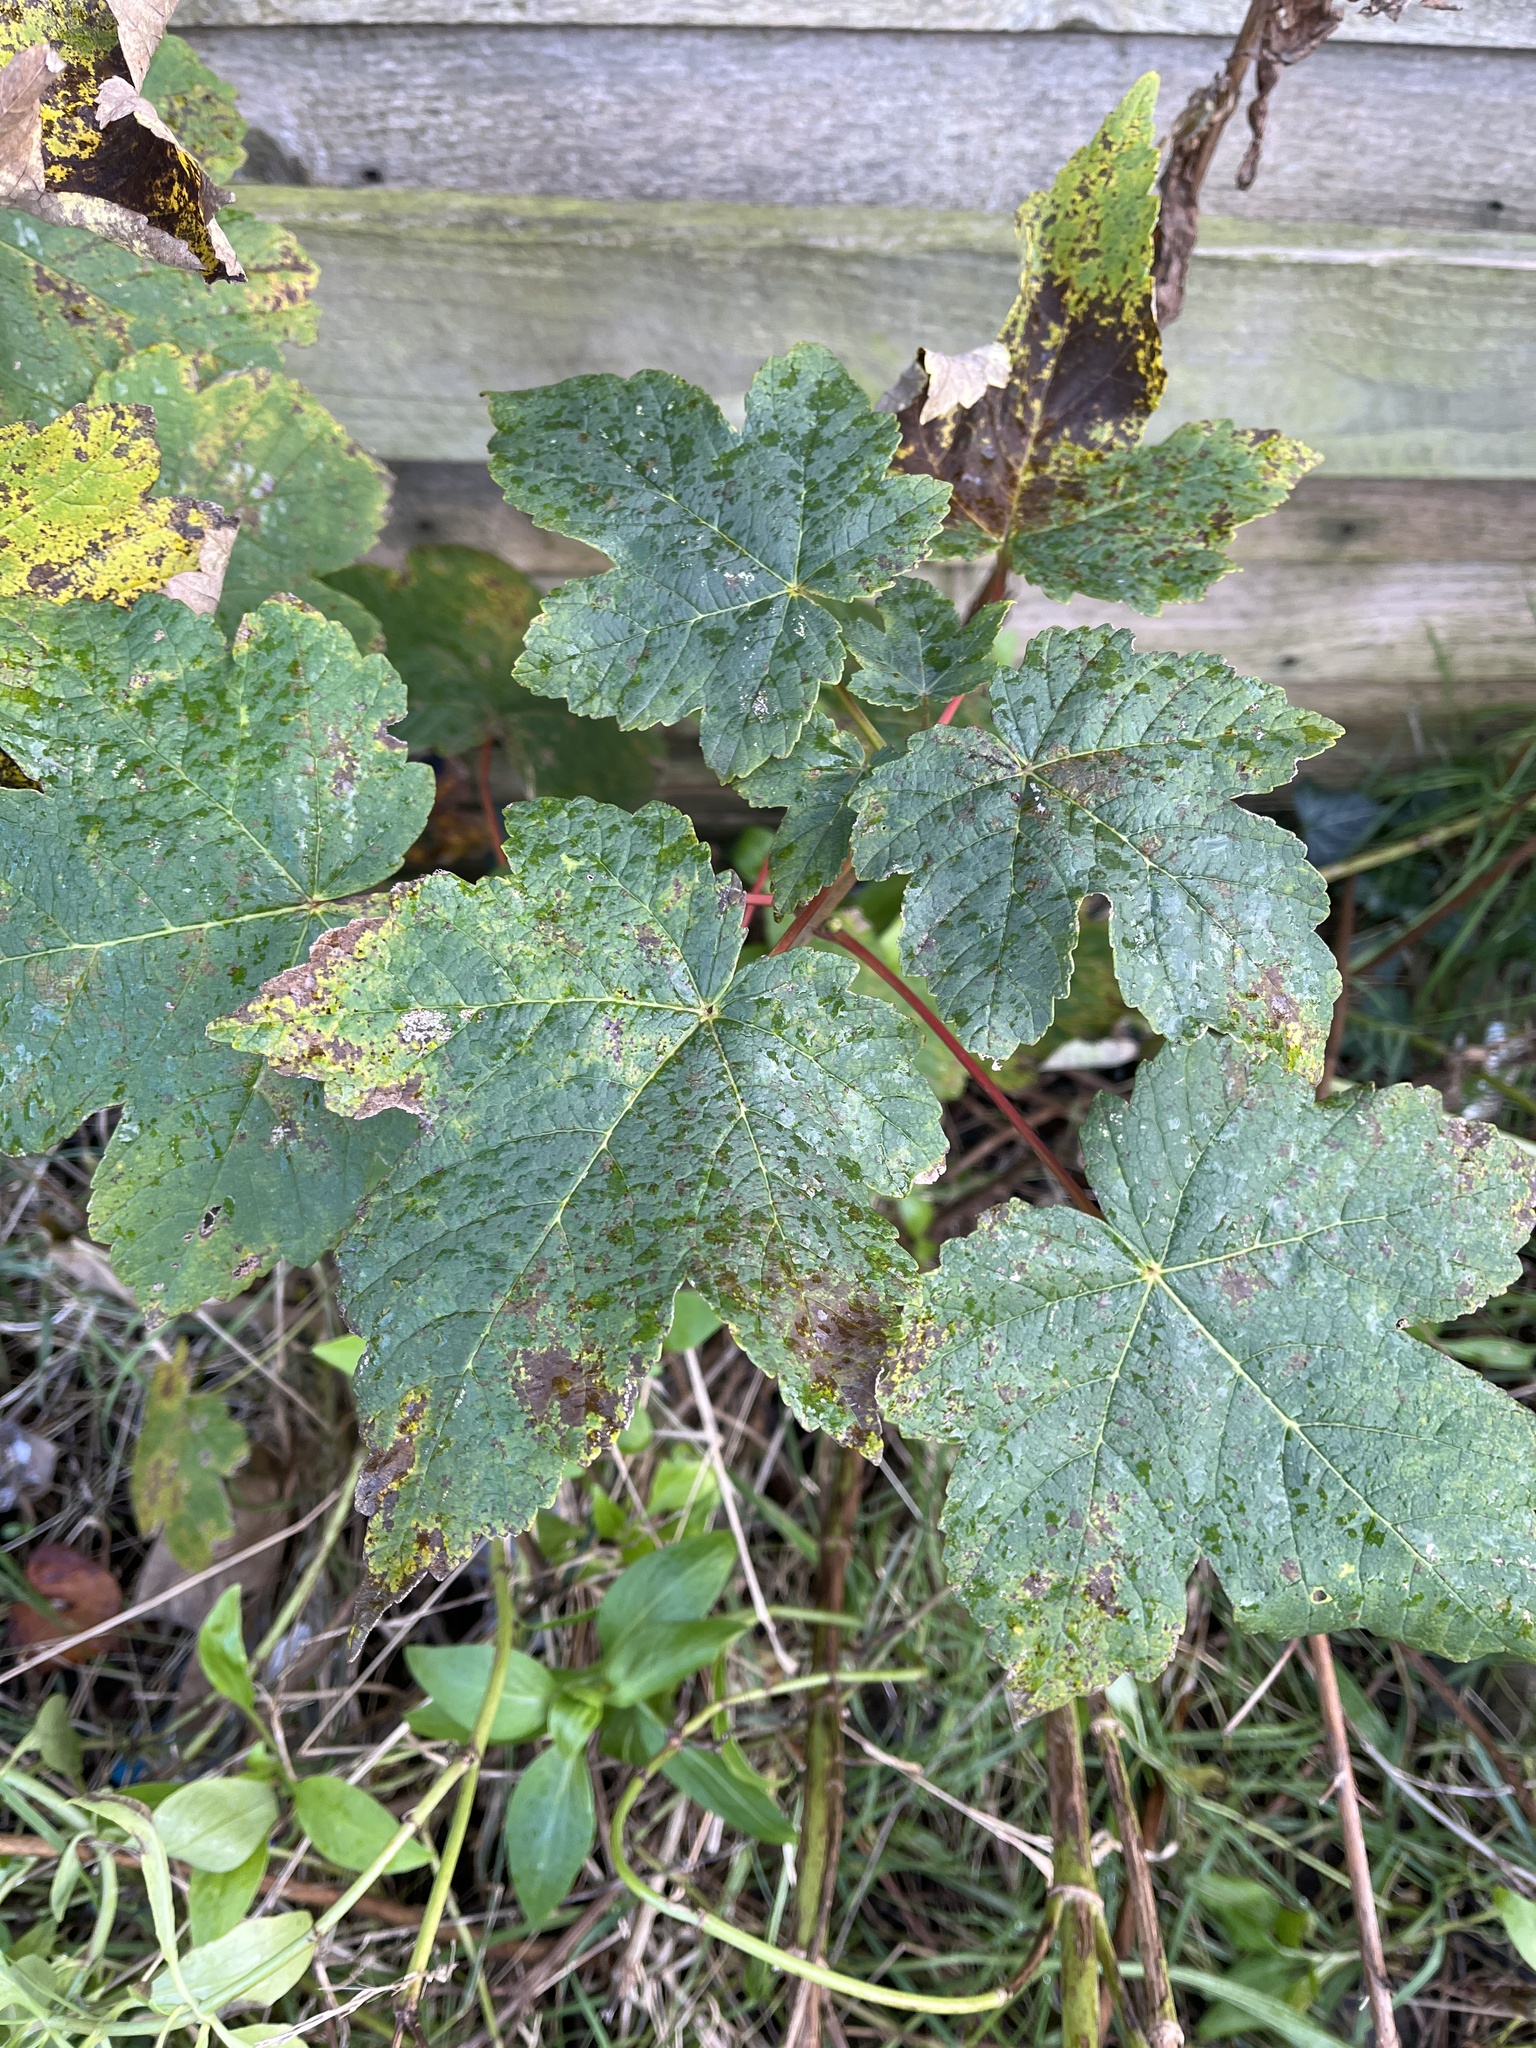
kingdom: Plantae
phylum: Tracheophyta
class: Magnoliopsida
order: Sapindales
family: Sapindaceae
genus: Acer
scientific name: Acer pseudoplatanus
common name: Sycamore
